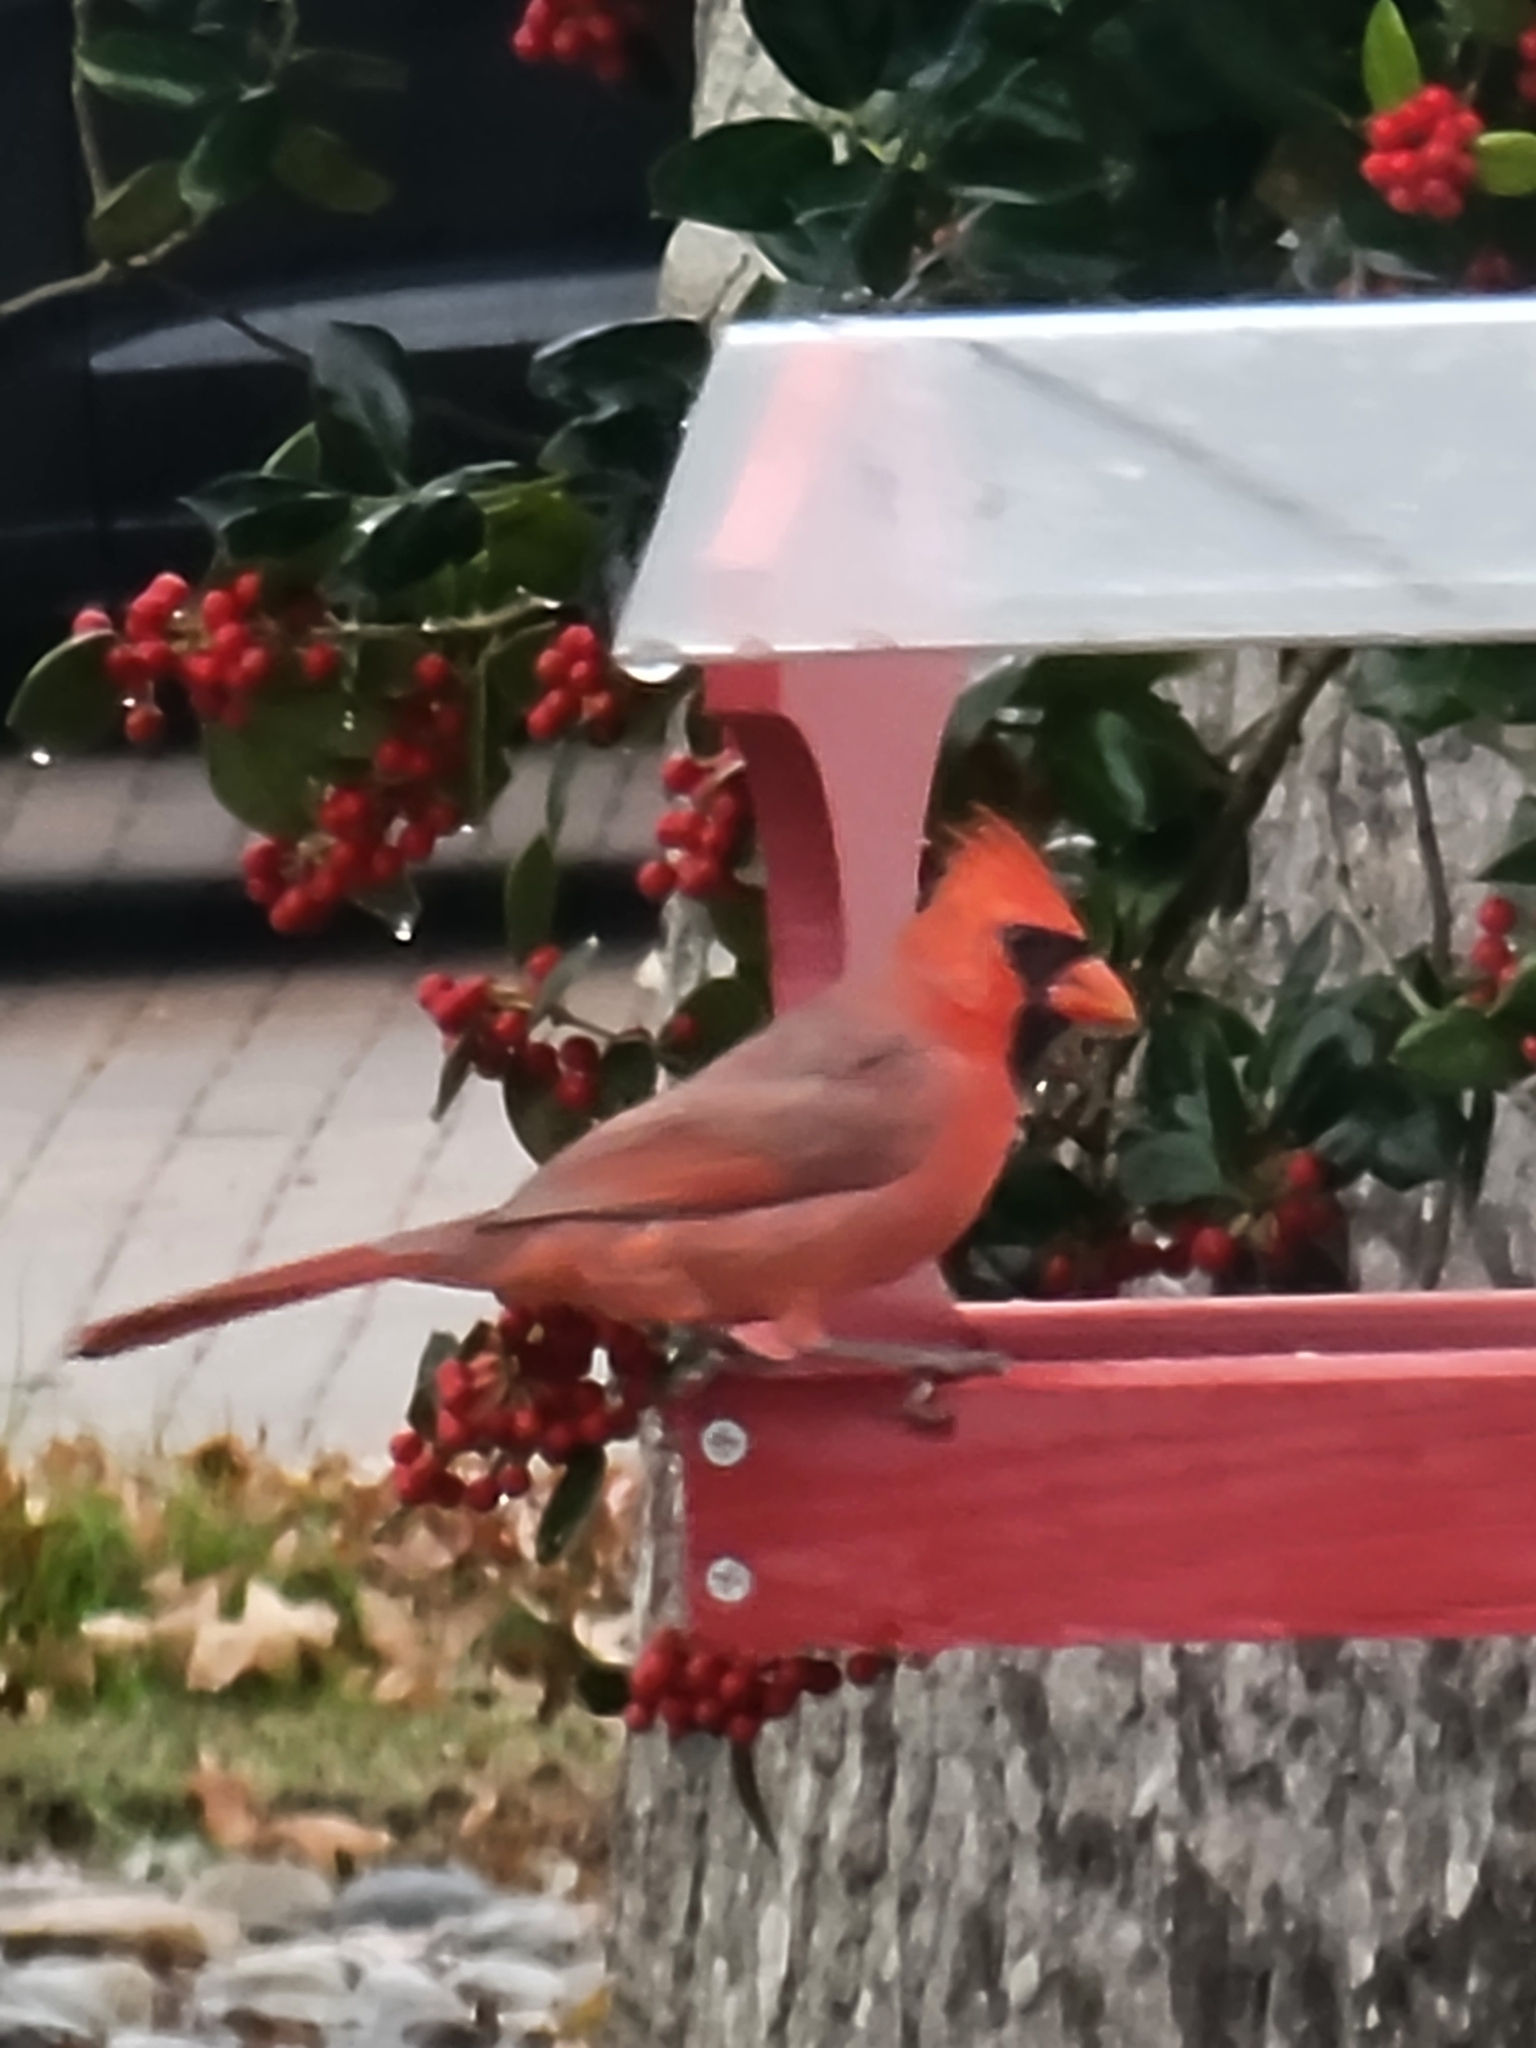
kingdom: Animalia
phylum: Chordata
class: Aves
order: Passeriformes
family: Cardinalidae
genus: Cardinalis
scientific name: Cardinalis cardinalis
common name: Northern cardinal
